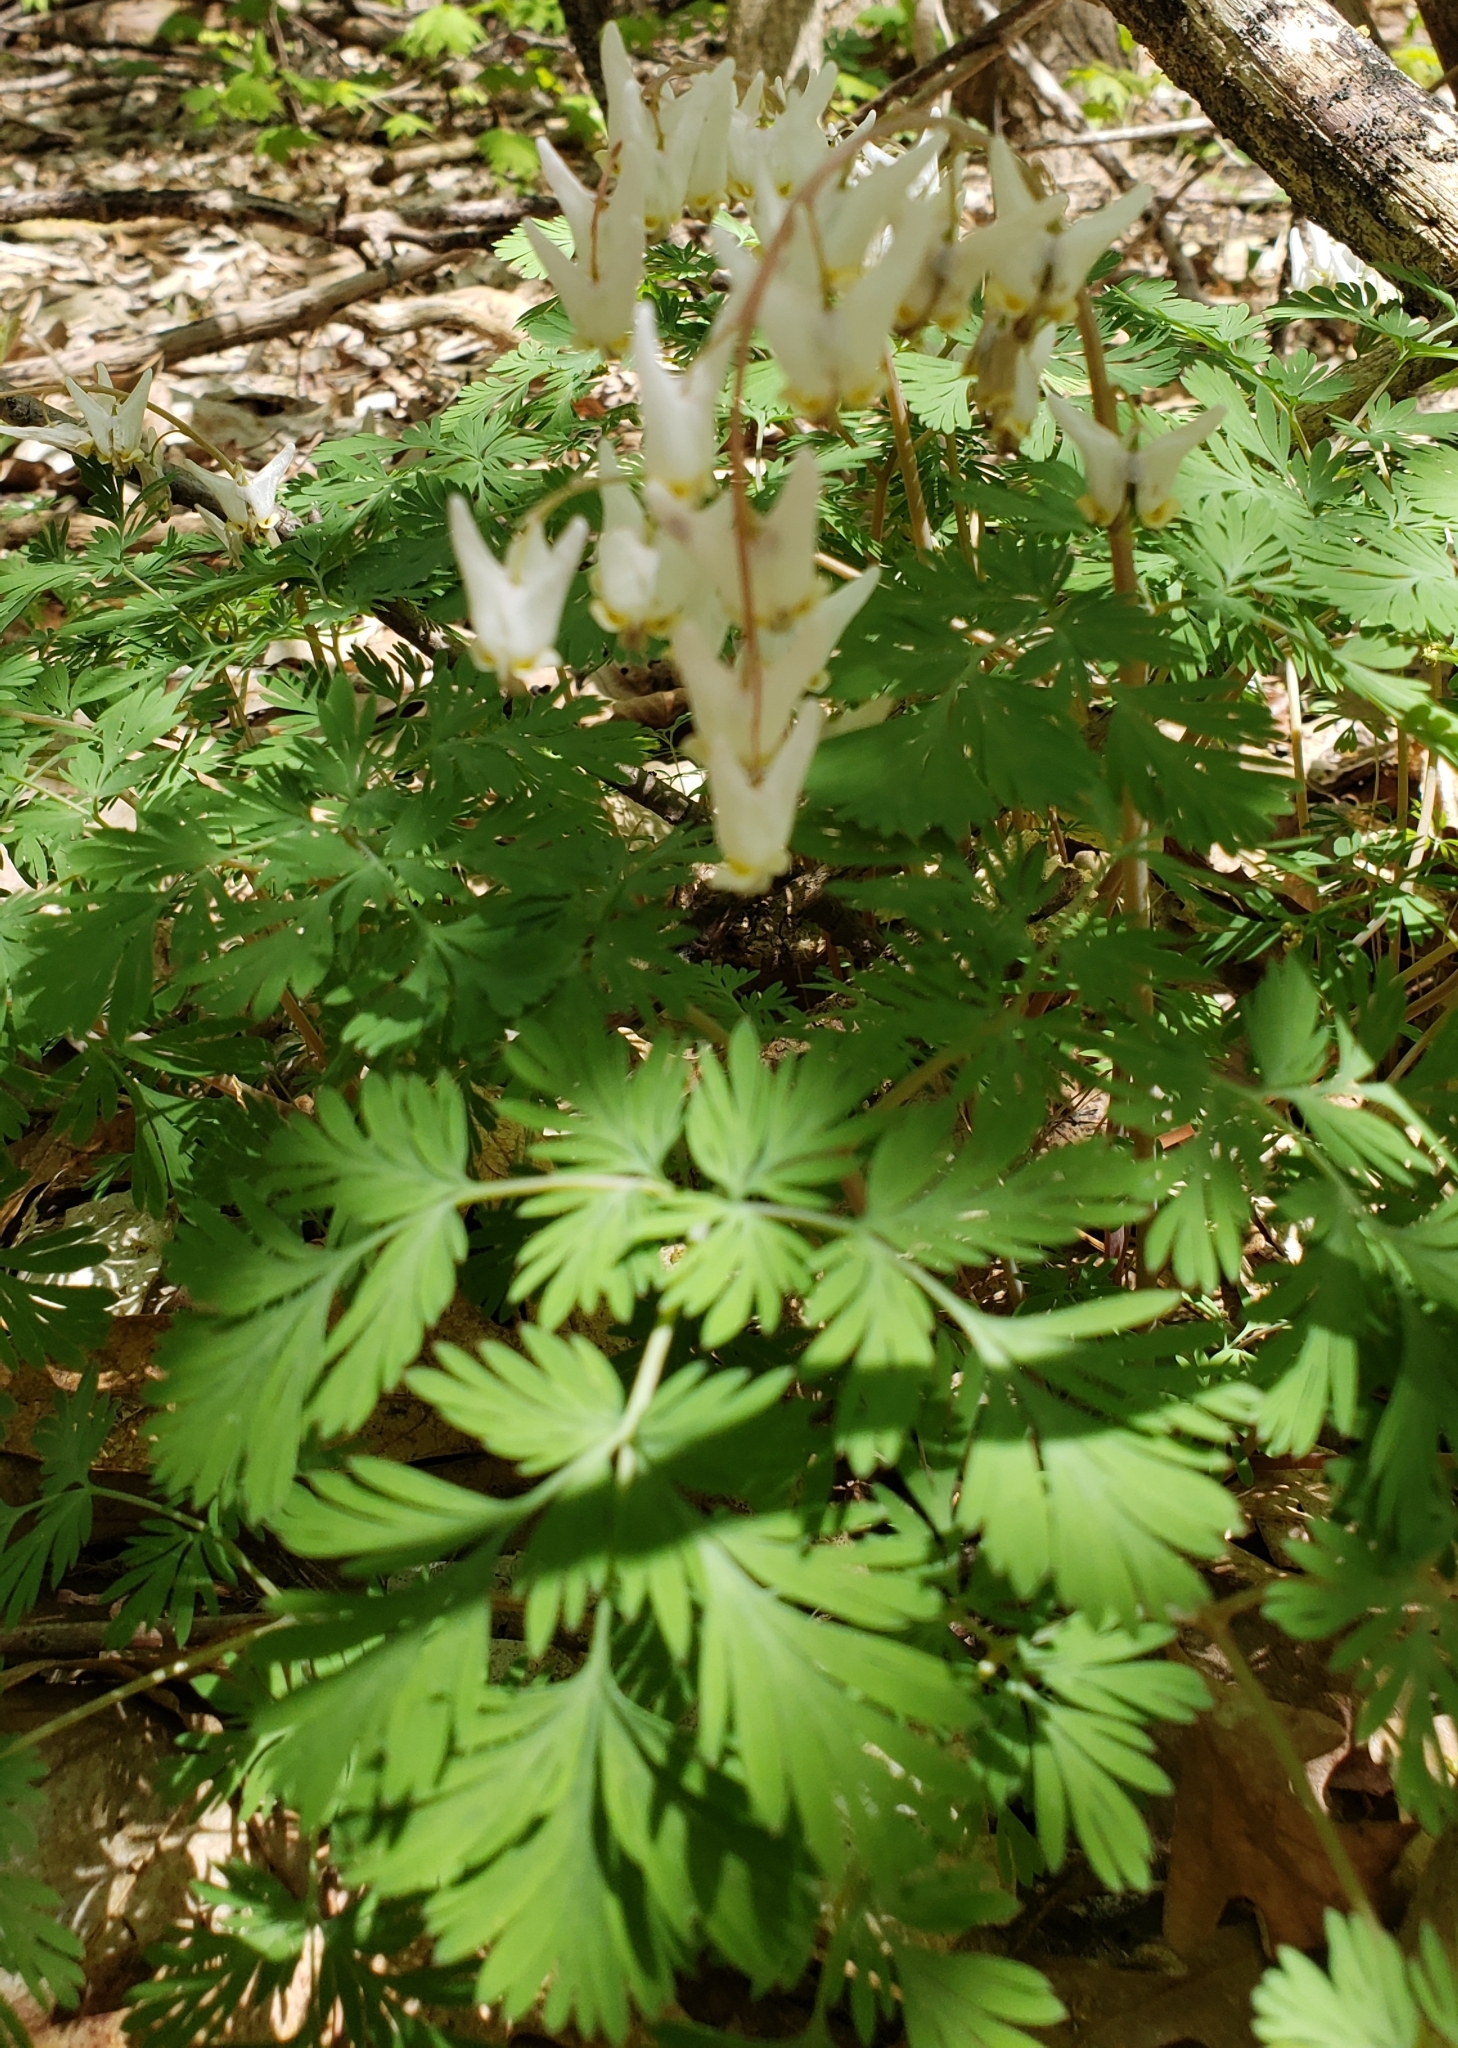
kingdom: Plantae
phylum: Tracheophyta
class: Magnoliopsida
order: Ranunculales
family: Papaveraceae
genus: Dicentra
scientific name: Dicentra cucullaria
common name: Dutchman's breeches
